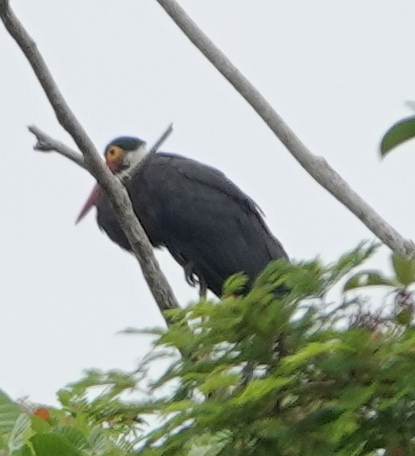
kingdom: Animalia
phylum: Chordata
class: Aves
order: Ciconiiformes
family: Ciconiidae
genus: Ciconia
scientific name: Ciconia stormi
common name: Storm's stork
